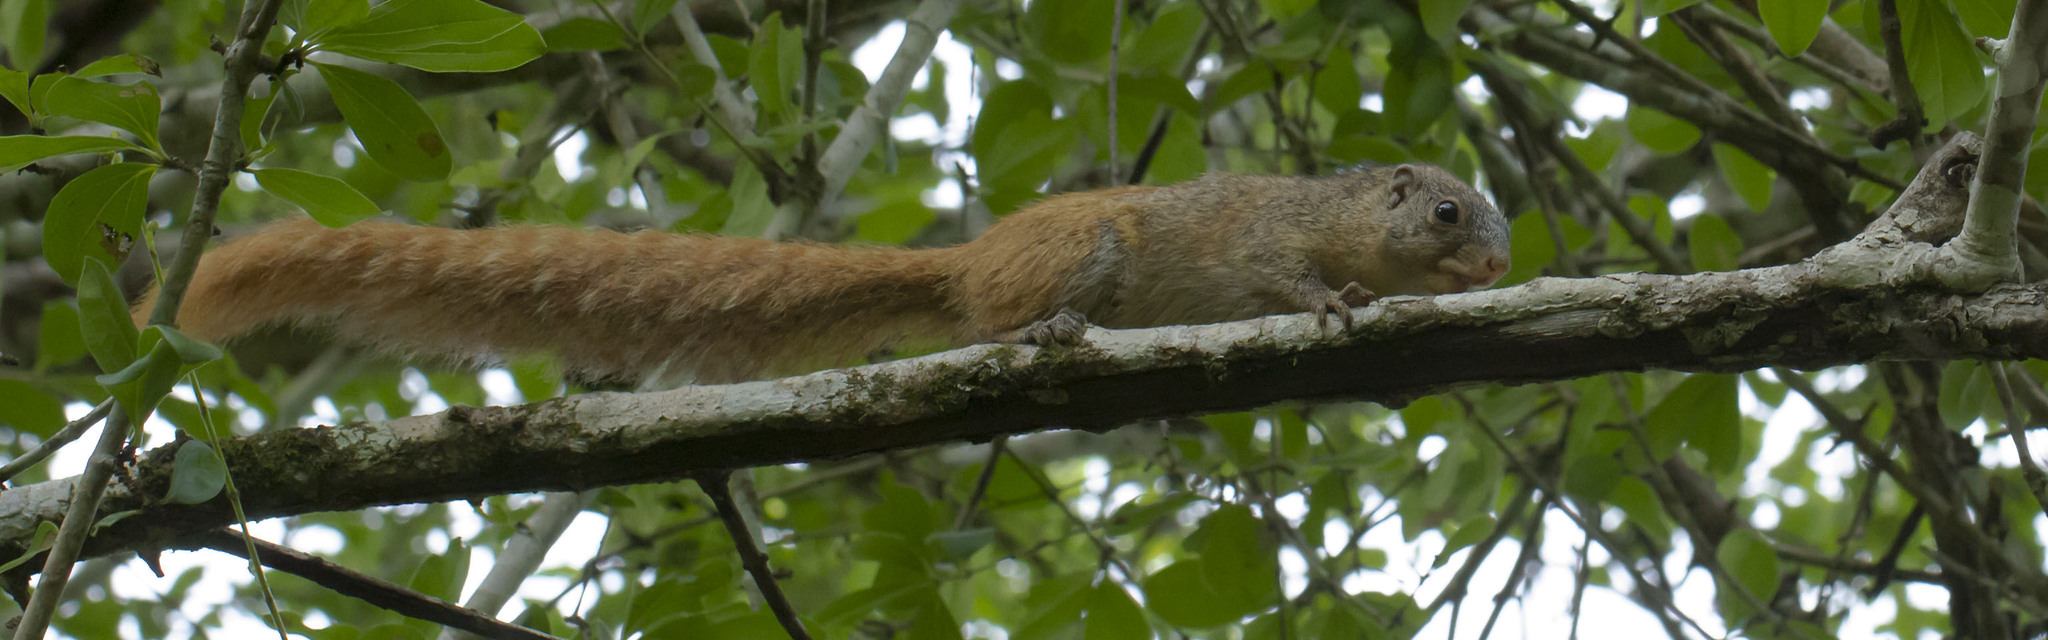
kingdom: Animalia
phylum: Chordata
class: Mammalia
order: Rodentia
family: Sciuridae
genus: Heliosciurus
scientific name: Heliosciurus mutabilis
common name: Mutable sun squirrel
